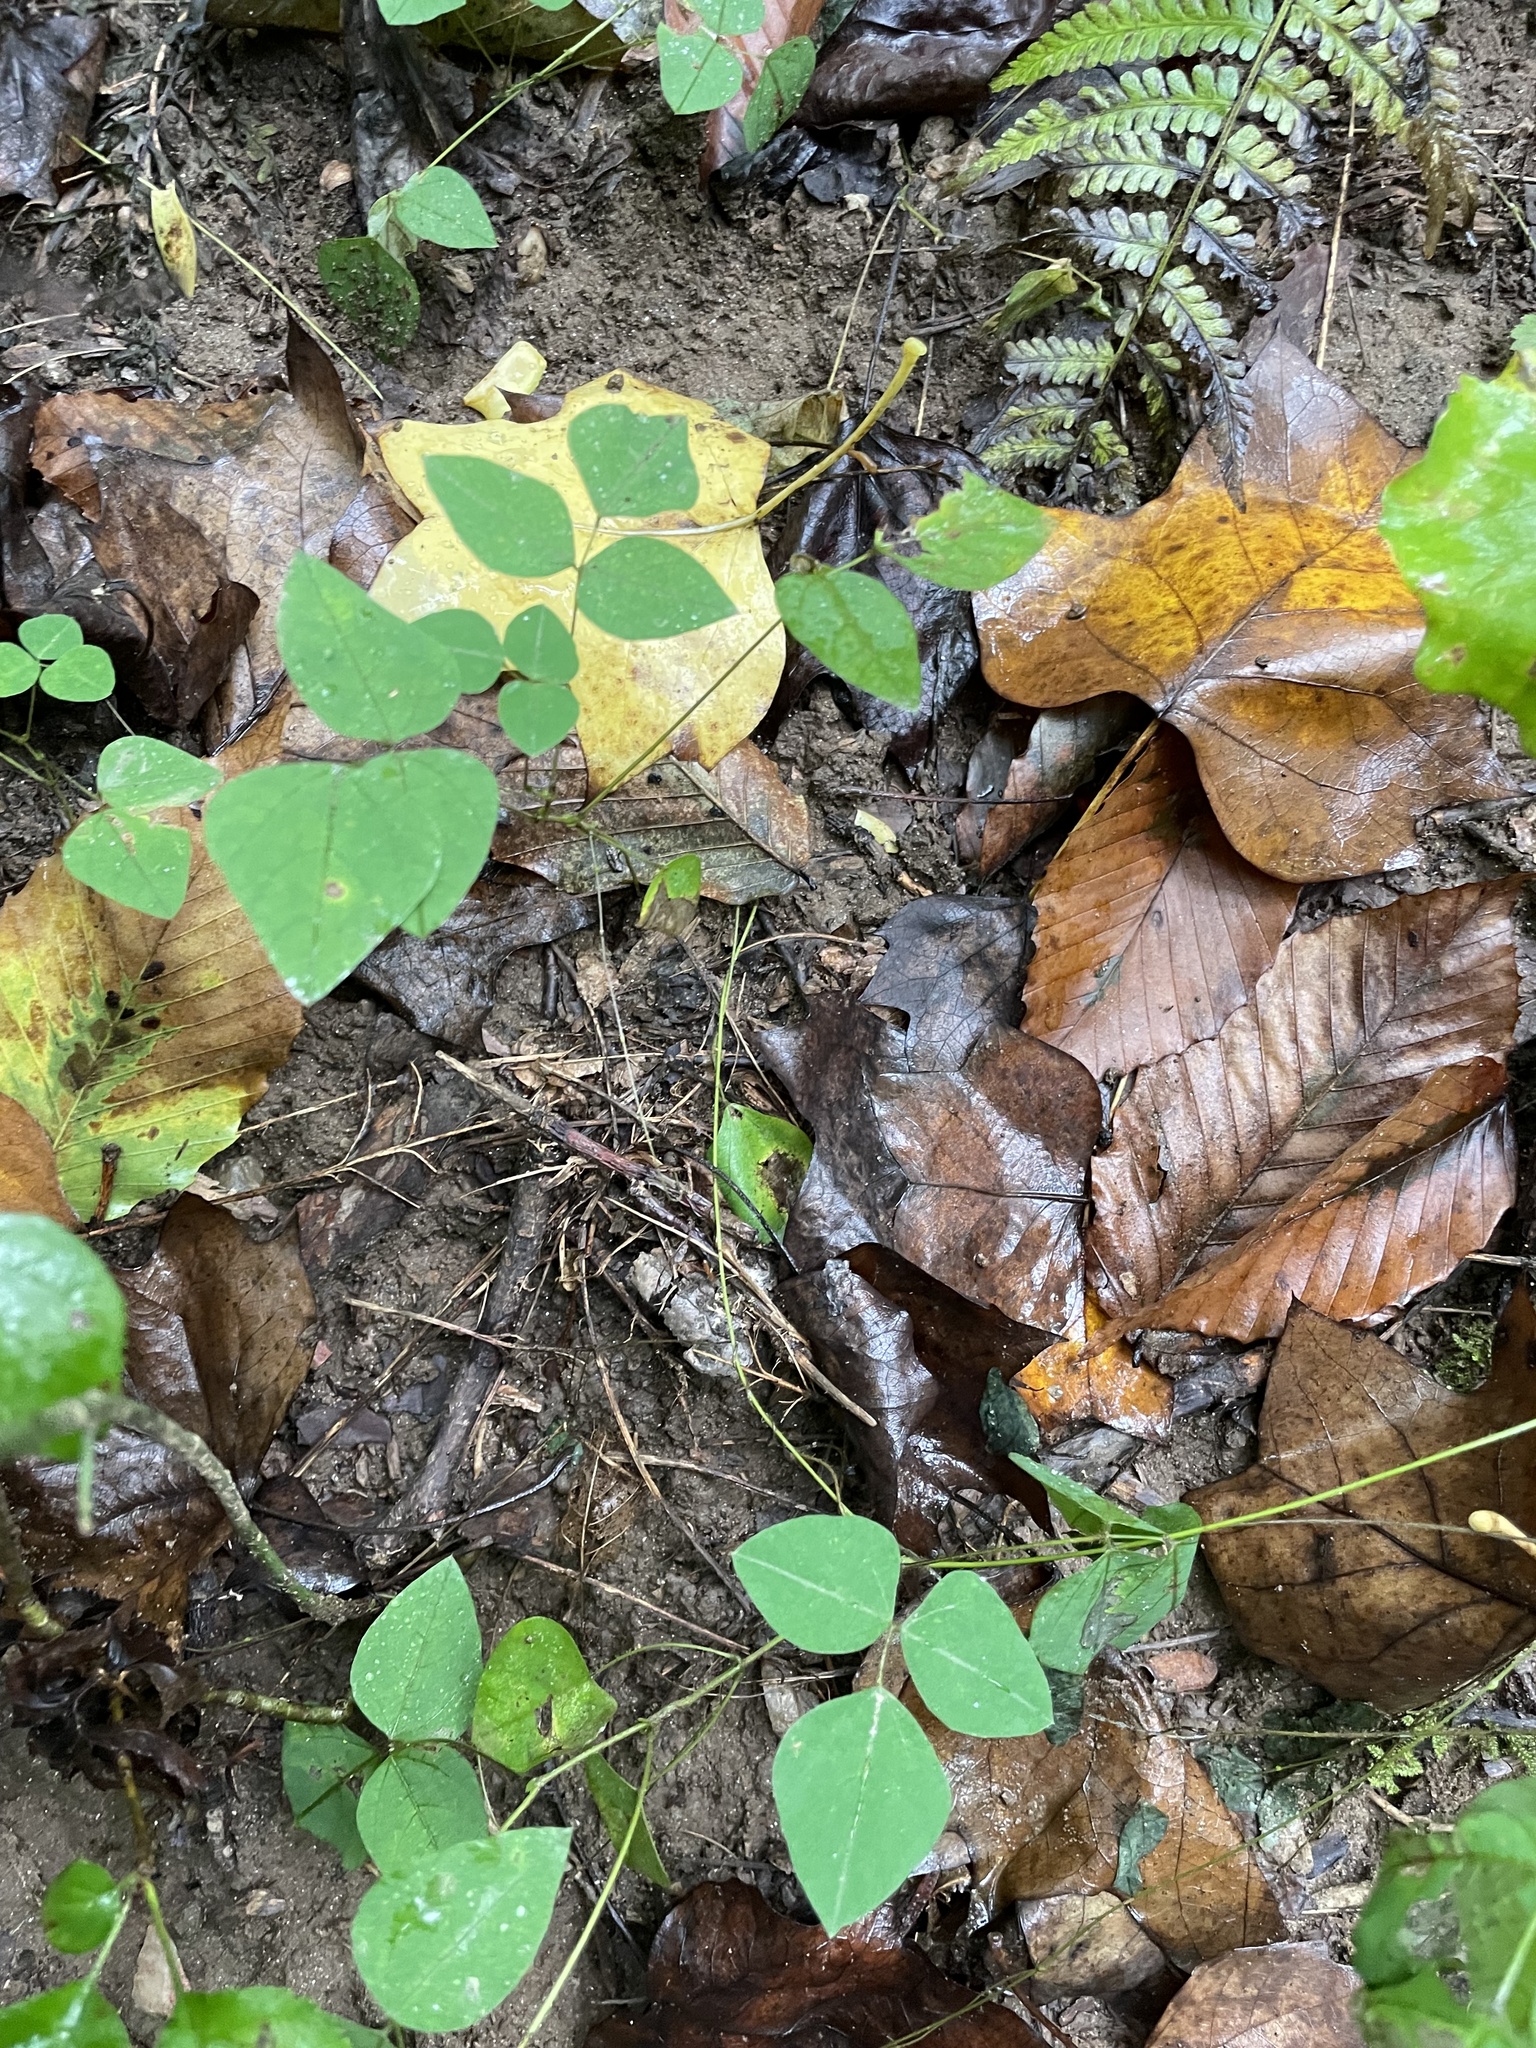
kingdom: Plantae
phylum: Tracheophyta
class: Magnoliopsida
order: Fabales
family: Fabaceae
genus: Amphicarpaea
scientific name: Amphicarpaea bracteata
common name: American hog peanut
